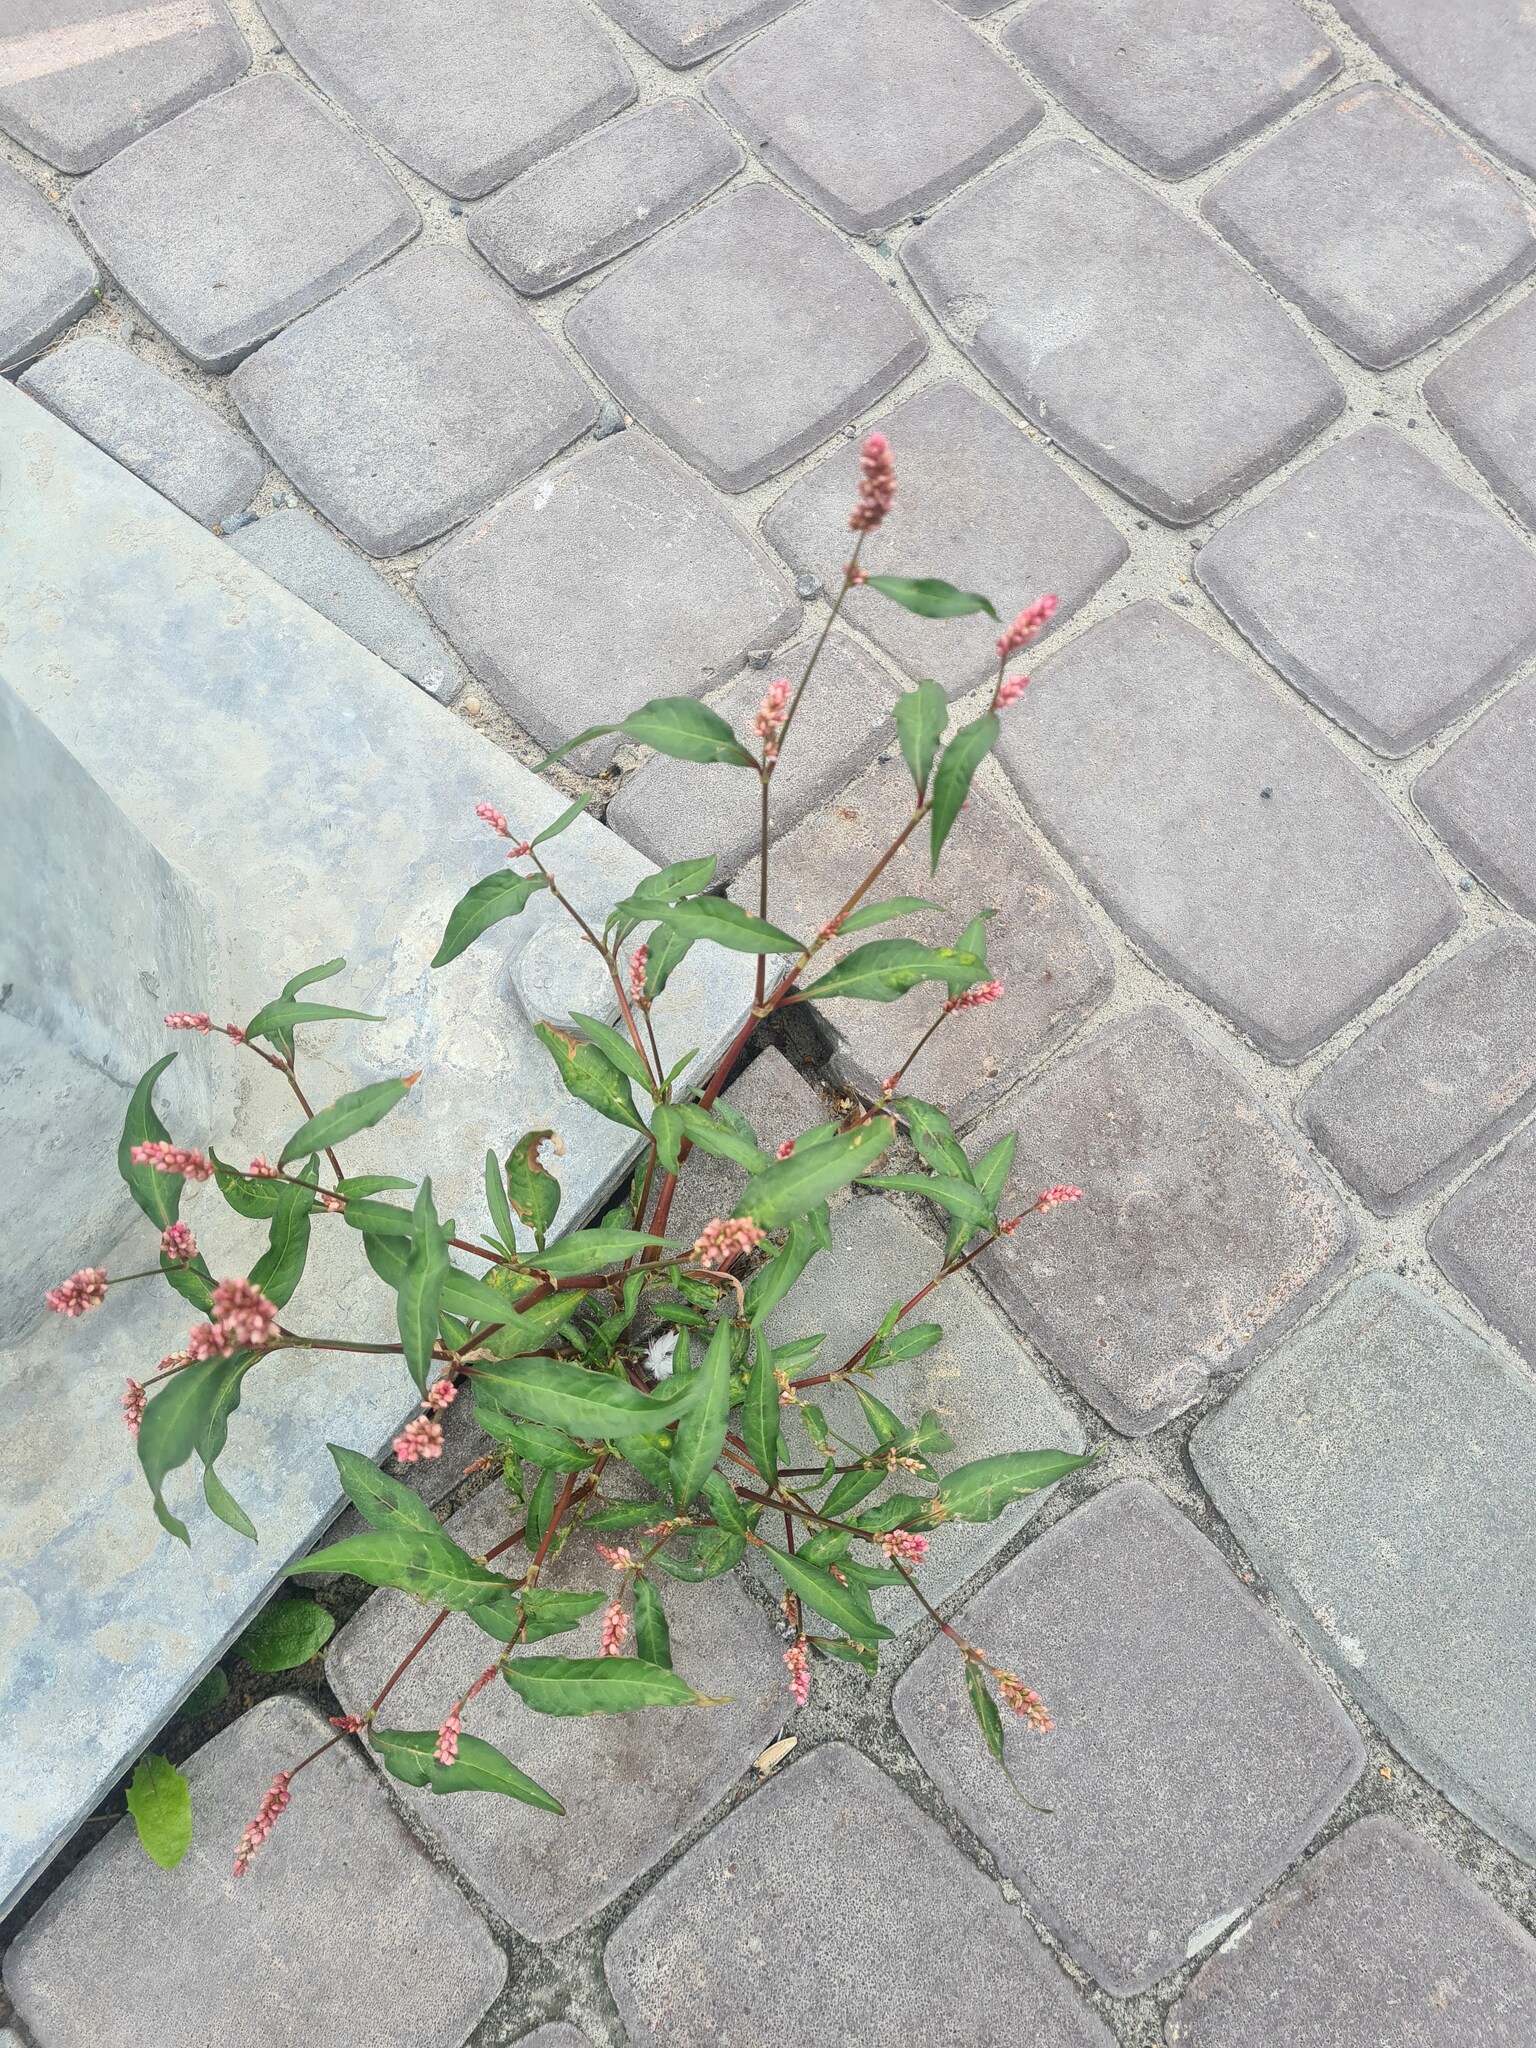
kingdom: Plantae
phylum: Tracheophyta
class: Magnoliopsida
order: Caryophyllales
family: Polygonaceae
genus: Persicaria
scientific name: Persicaria maculosa
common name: Redshank
